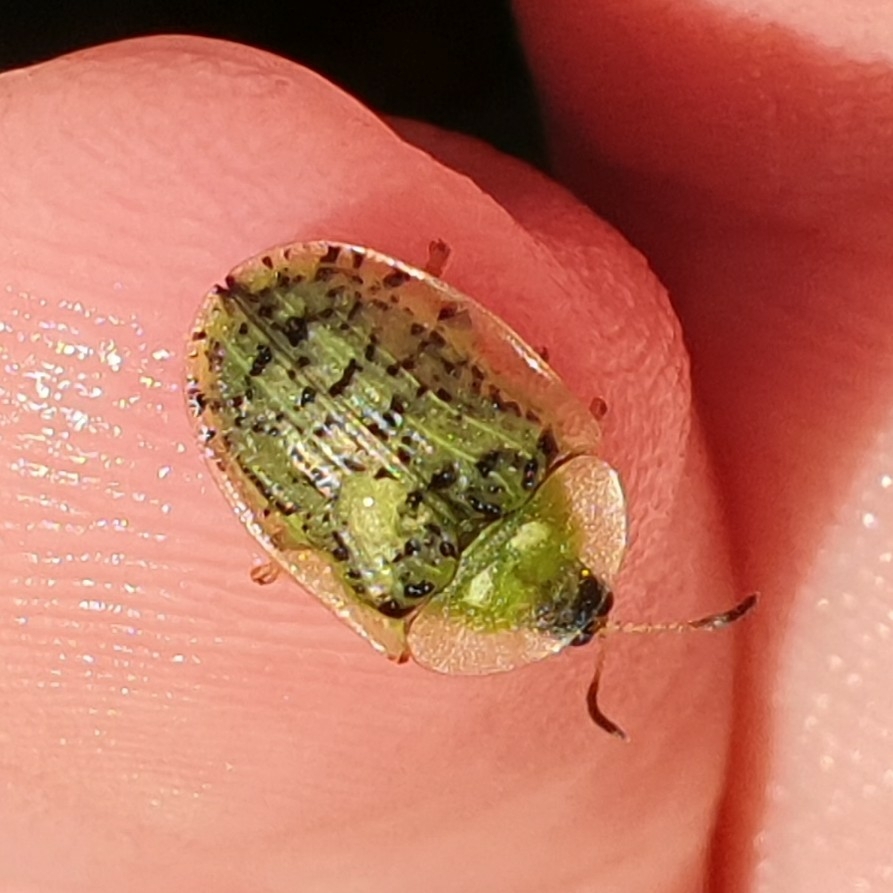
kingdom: Animalia
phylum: Arthropoda
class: Insecta
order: Coleoptera
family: Chrysomelidae
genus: Cassida
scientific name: Cassida nebulosa
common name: Beet tortoise beetle
